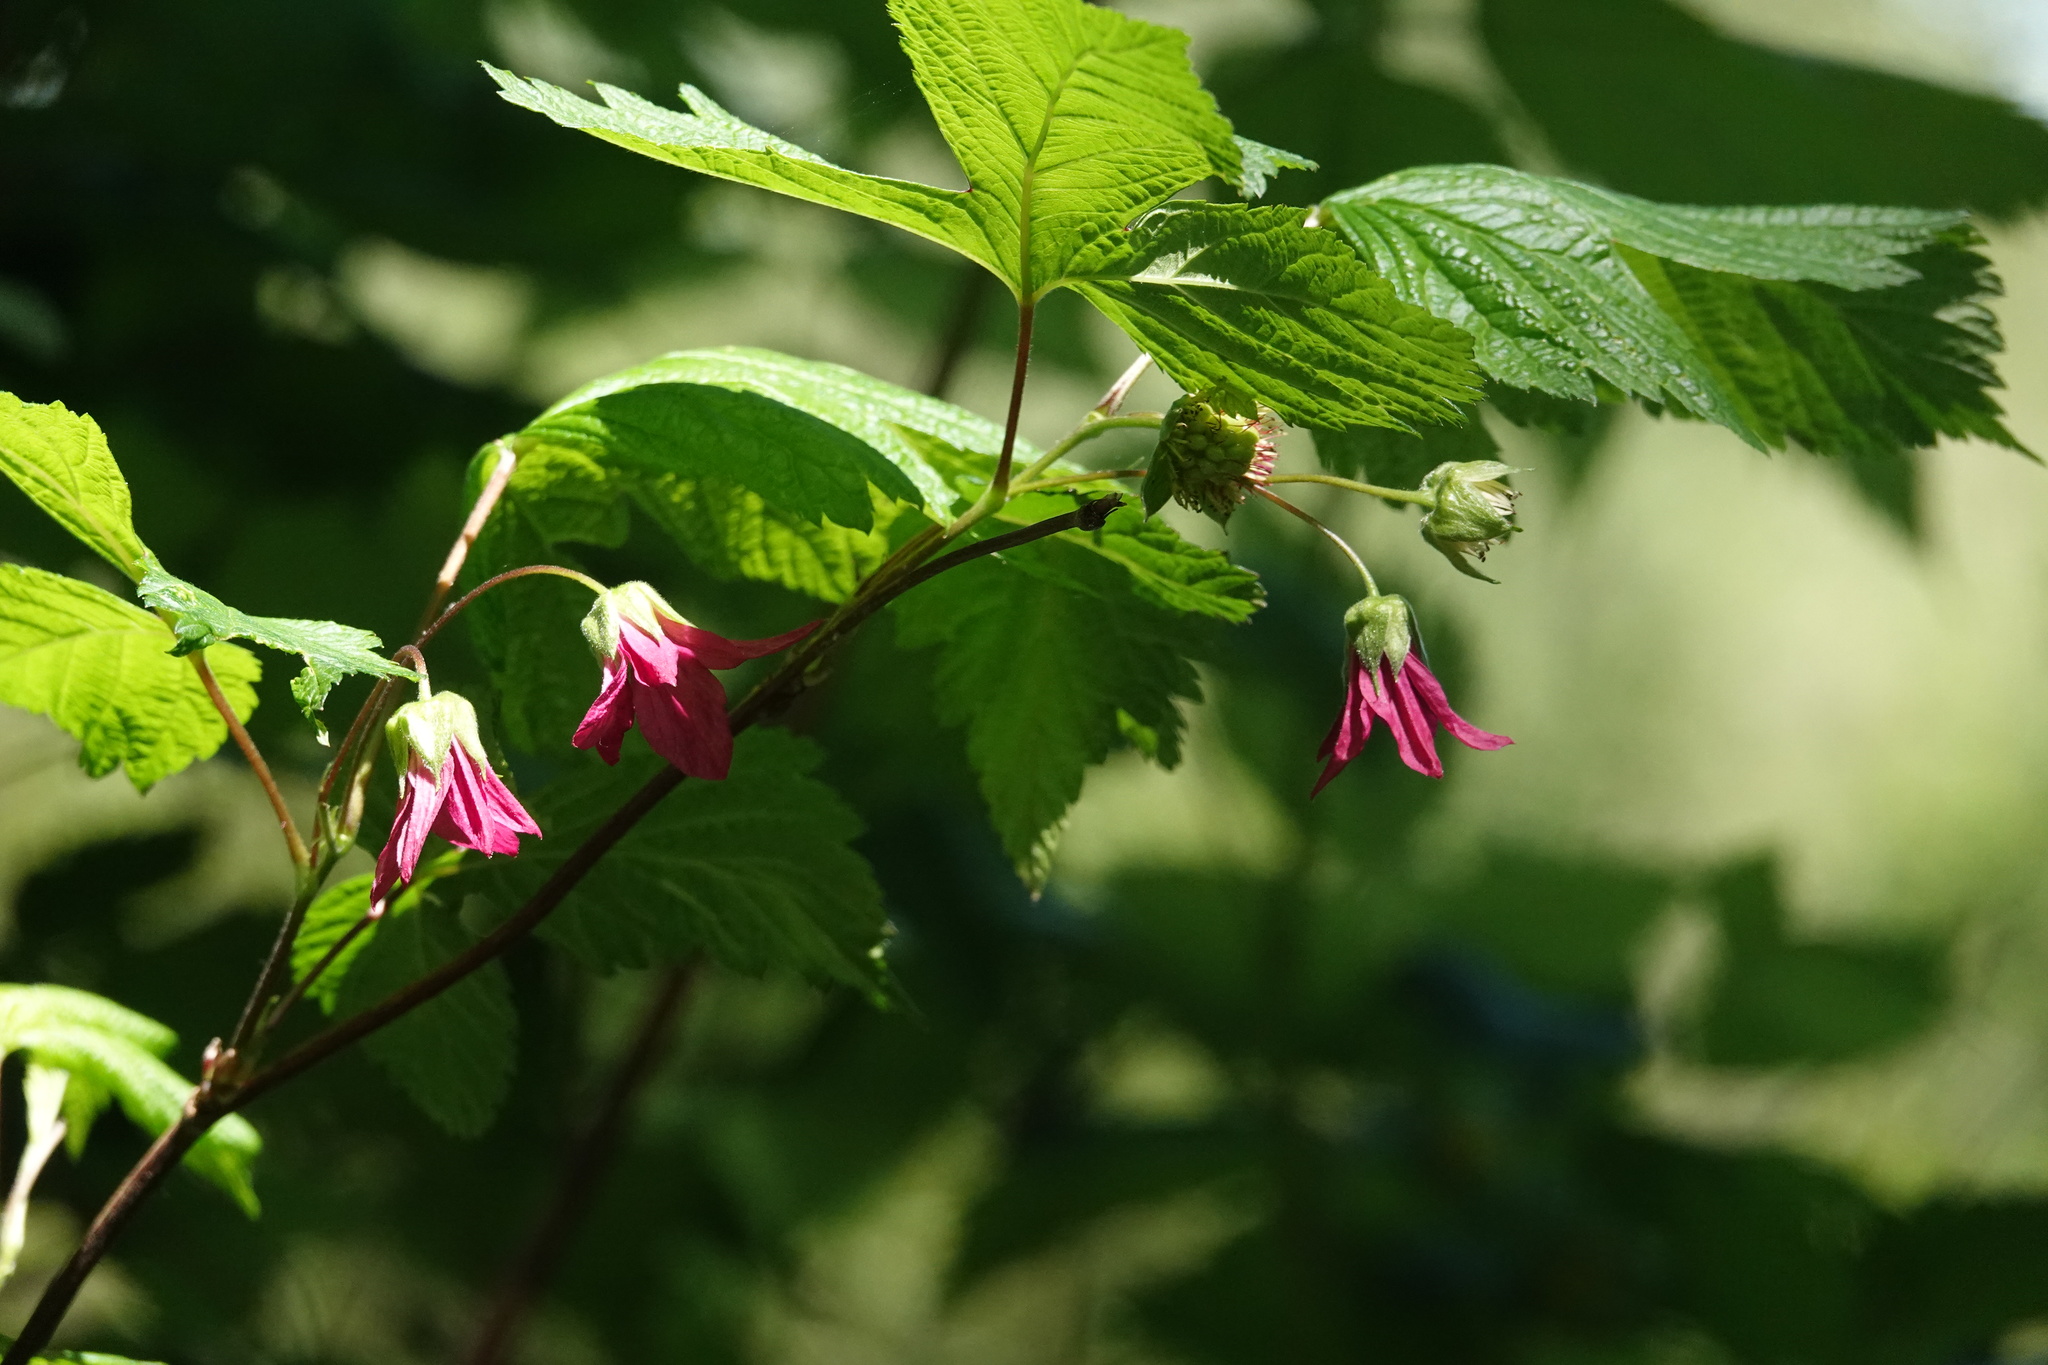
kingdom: Plantae
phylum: Tracheophyta
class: Magnoliopsida
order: Rosales
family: Rosaceae
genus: Rubus
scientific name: Rubus spectabilis
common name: Salmonberry
